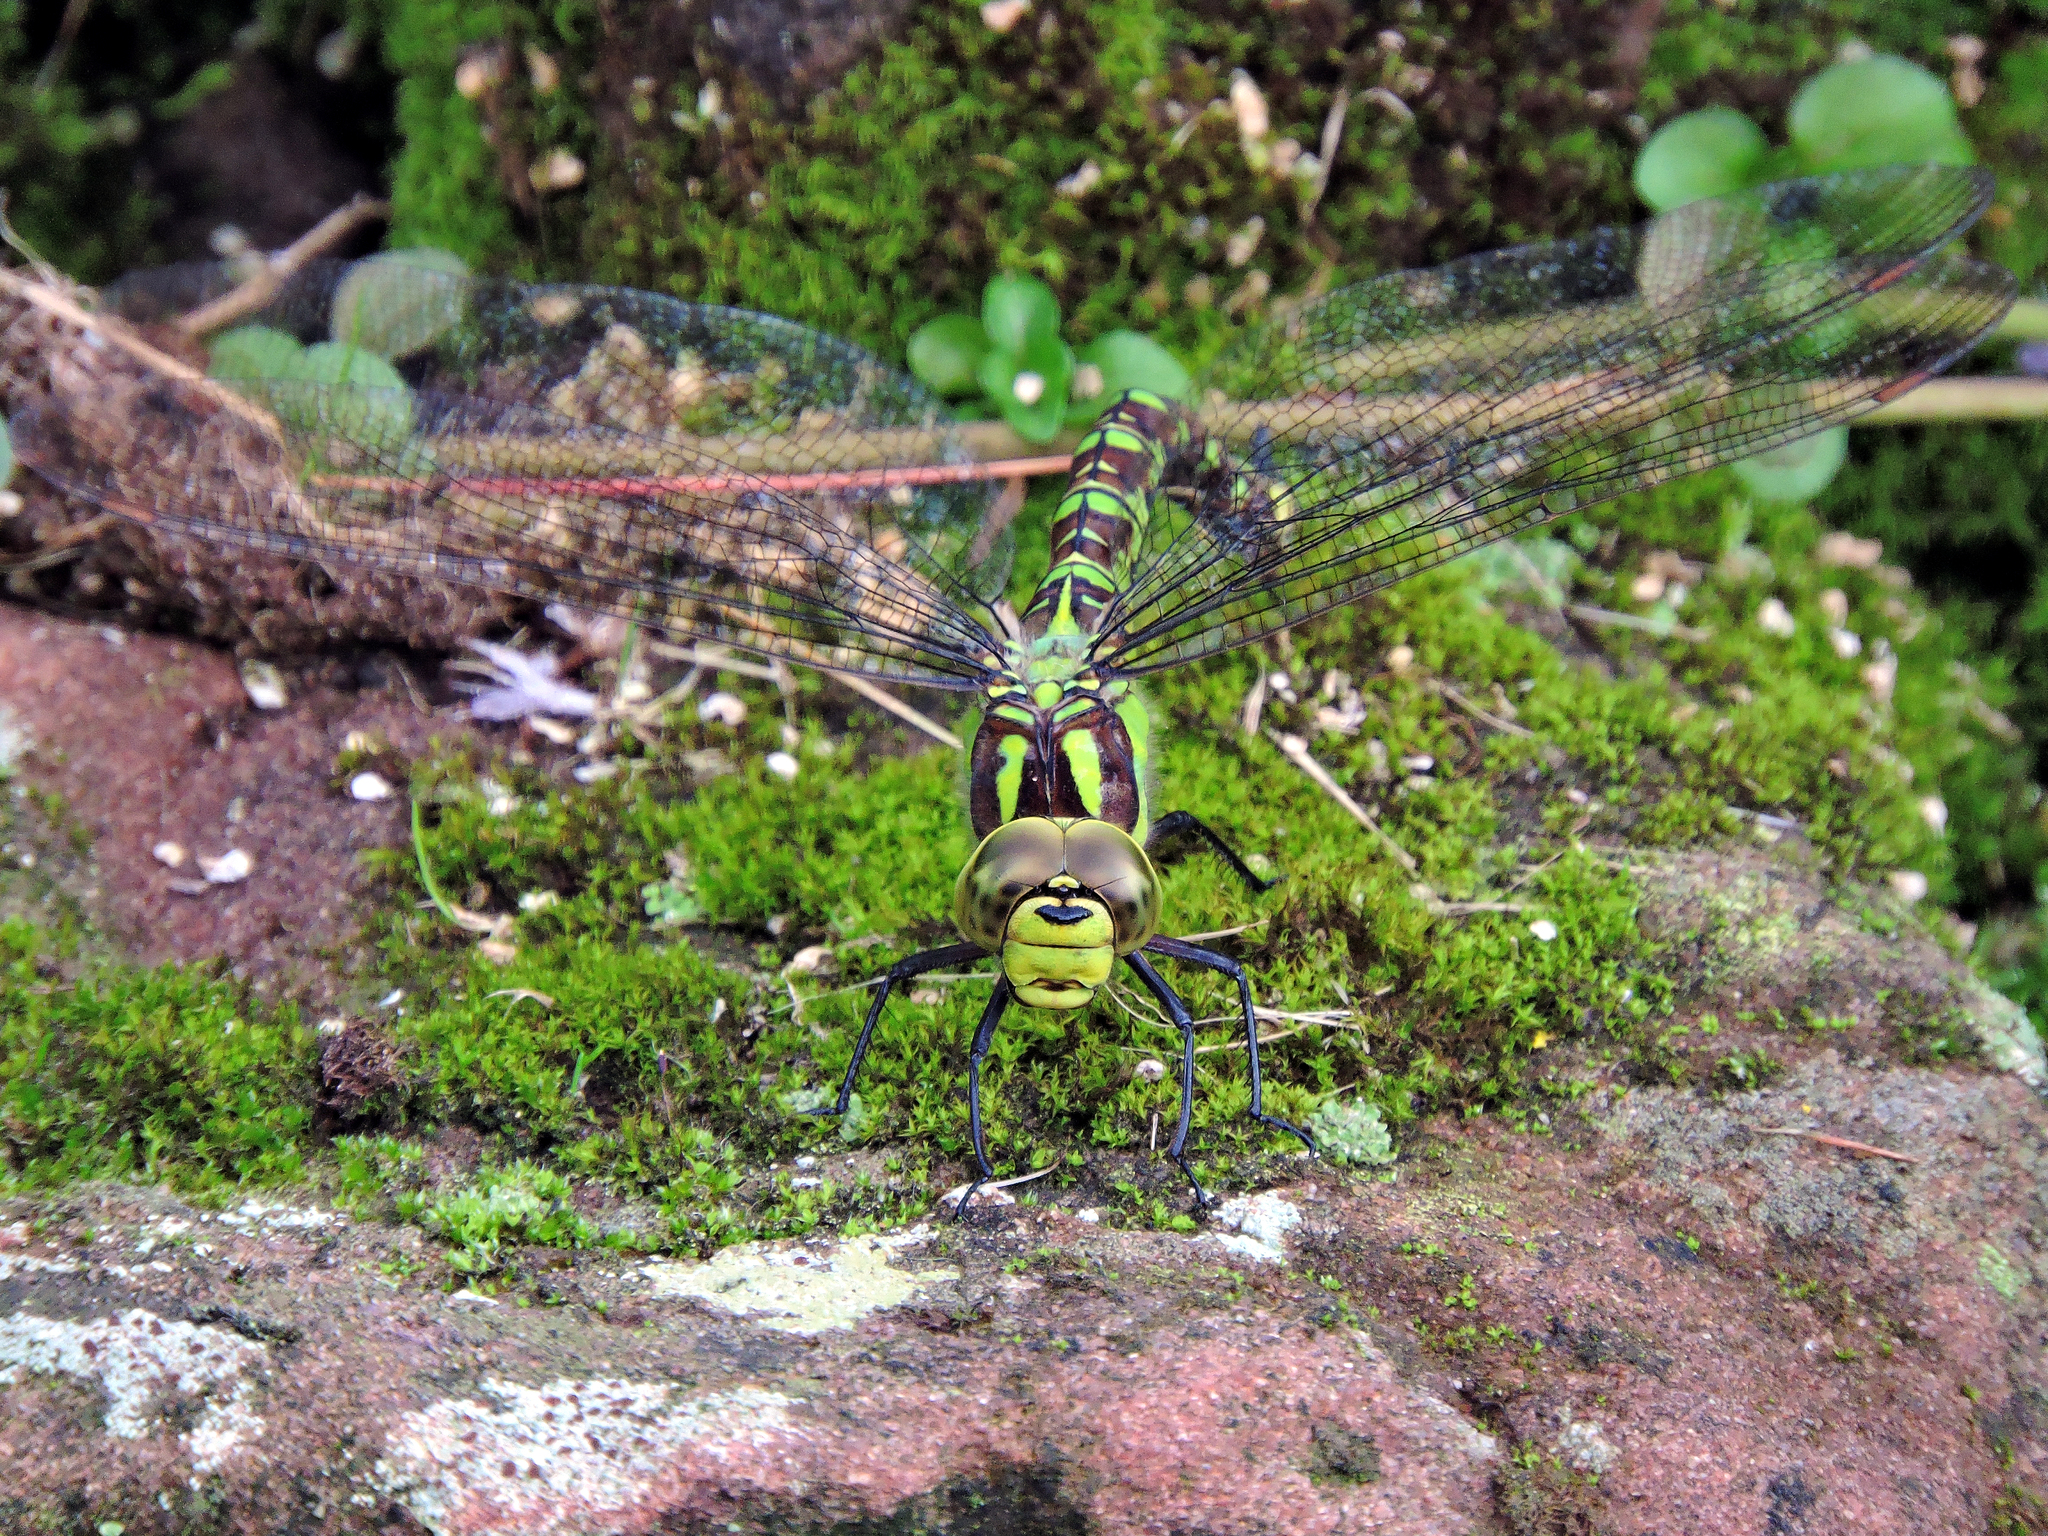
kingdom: Animalia
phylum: Arthropoda
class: Insecta
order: Odonata
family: Aeshnidae
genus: Aeshna
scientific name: Aeshna cyanea
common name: Southern hawker
